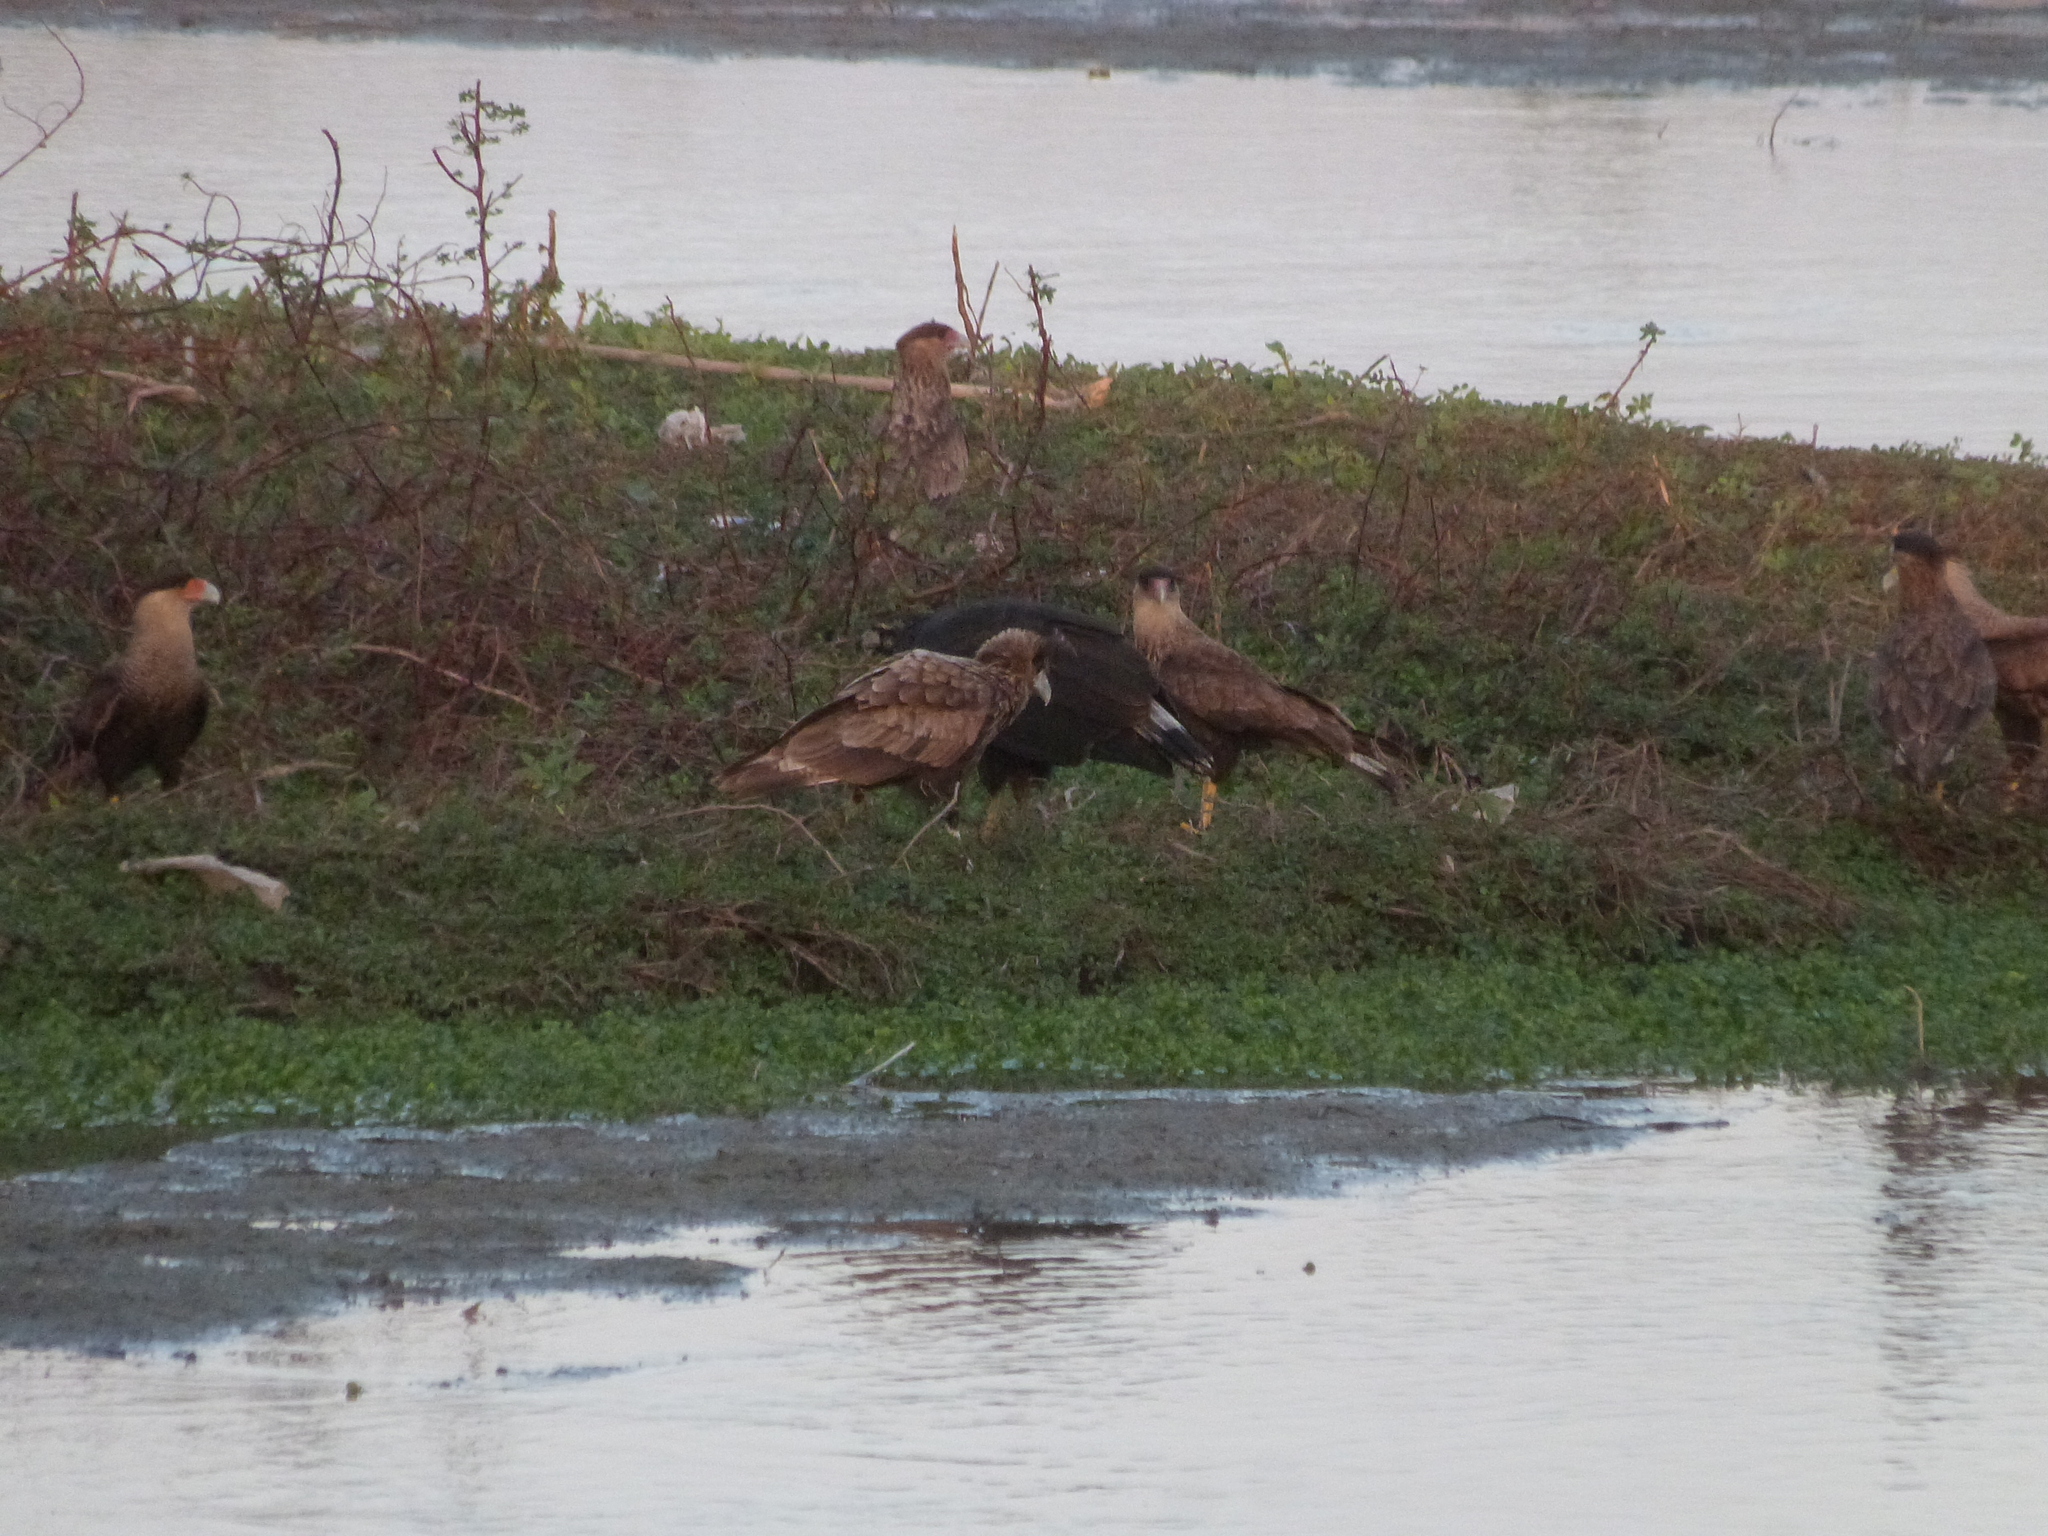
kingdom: Animalia
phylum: Chordata
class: Aves
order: Falconiformes
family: Falconidae
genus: Caracara
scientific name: Caracara plancus
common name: Southern caracara
